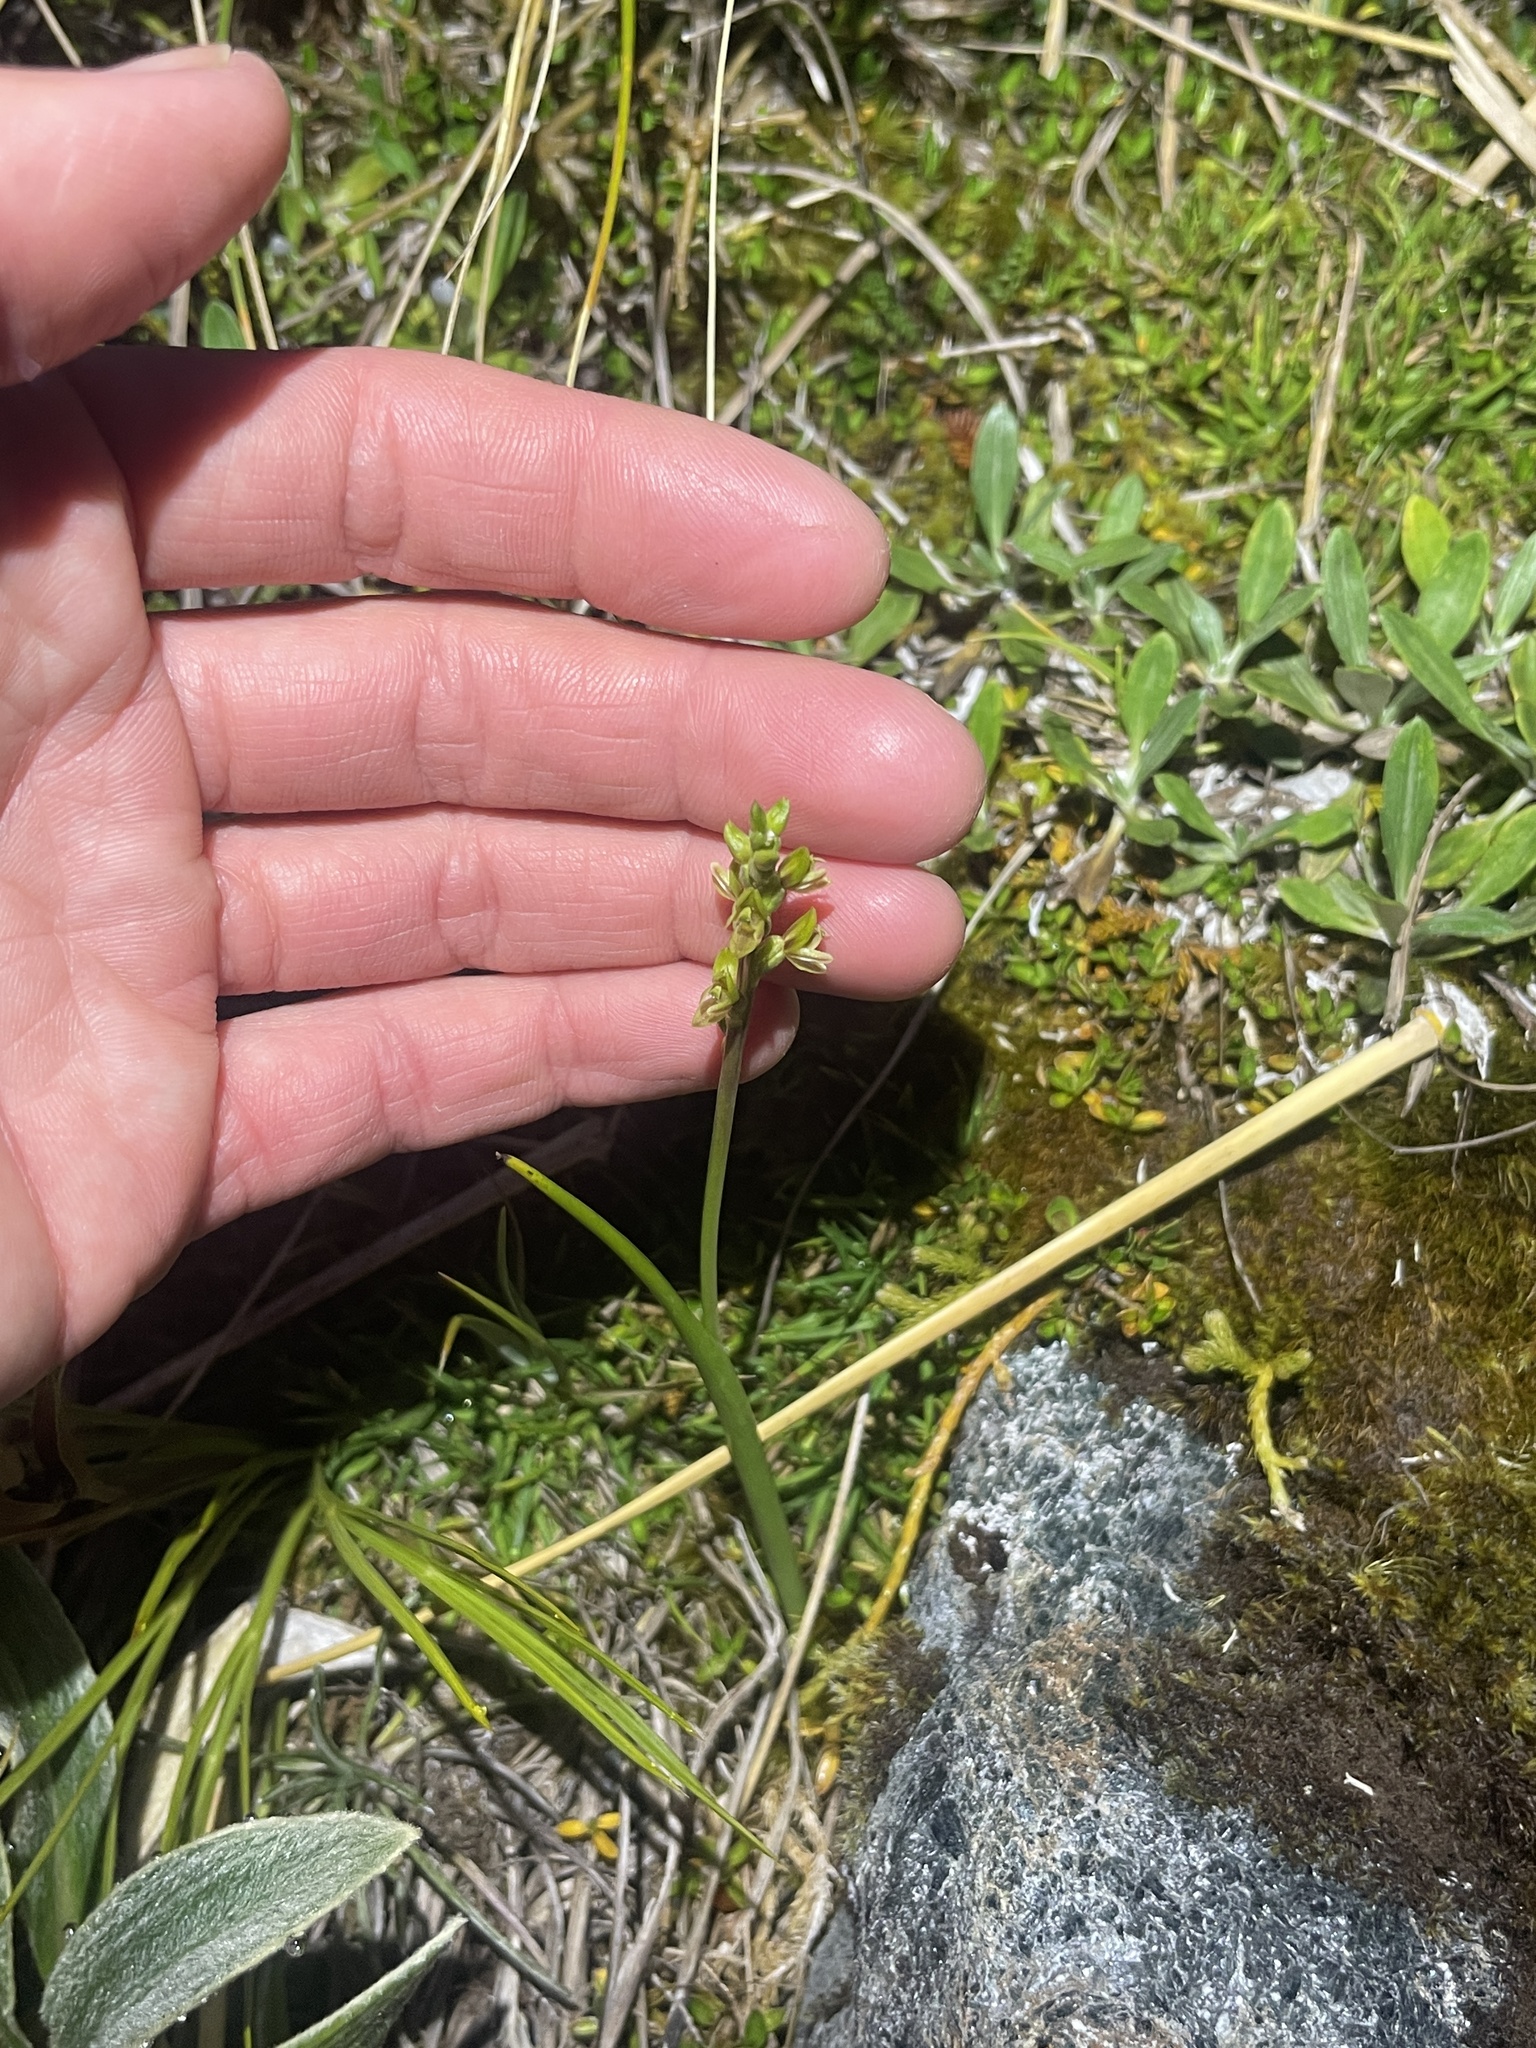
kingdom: Plantae
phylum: Tracheophyta
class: Liliopsida
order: Asparagales
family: Orchidaceae
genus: Prasophyllum
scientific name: Prasophyllum colensoi
